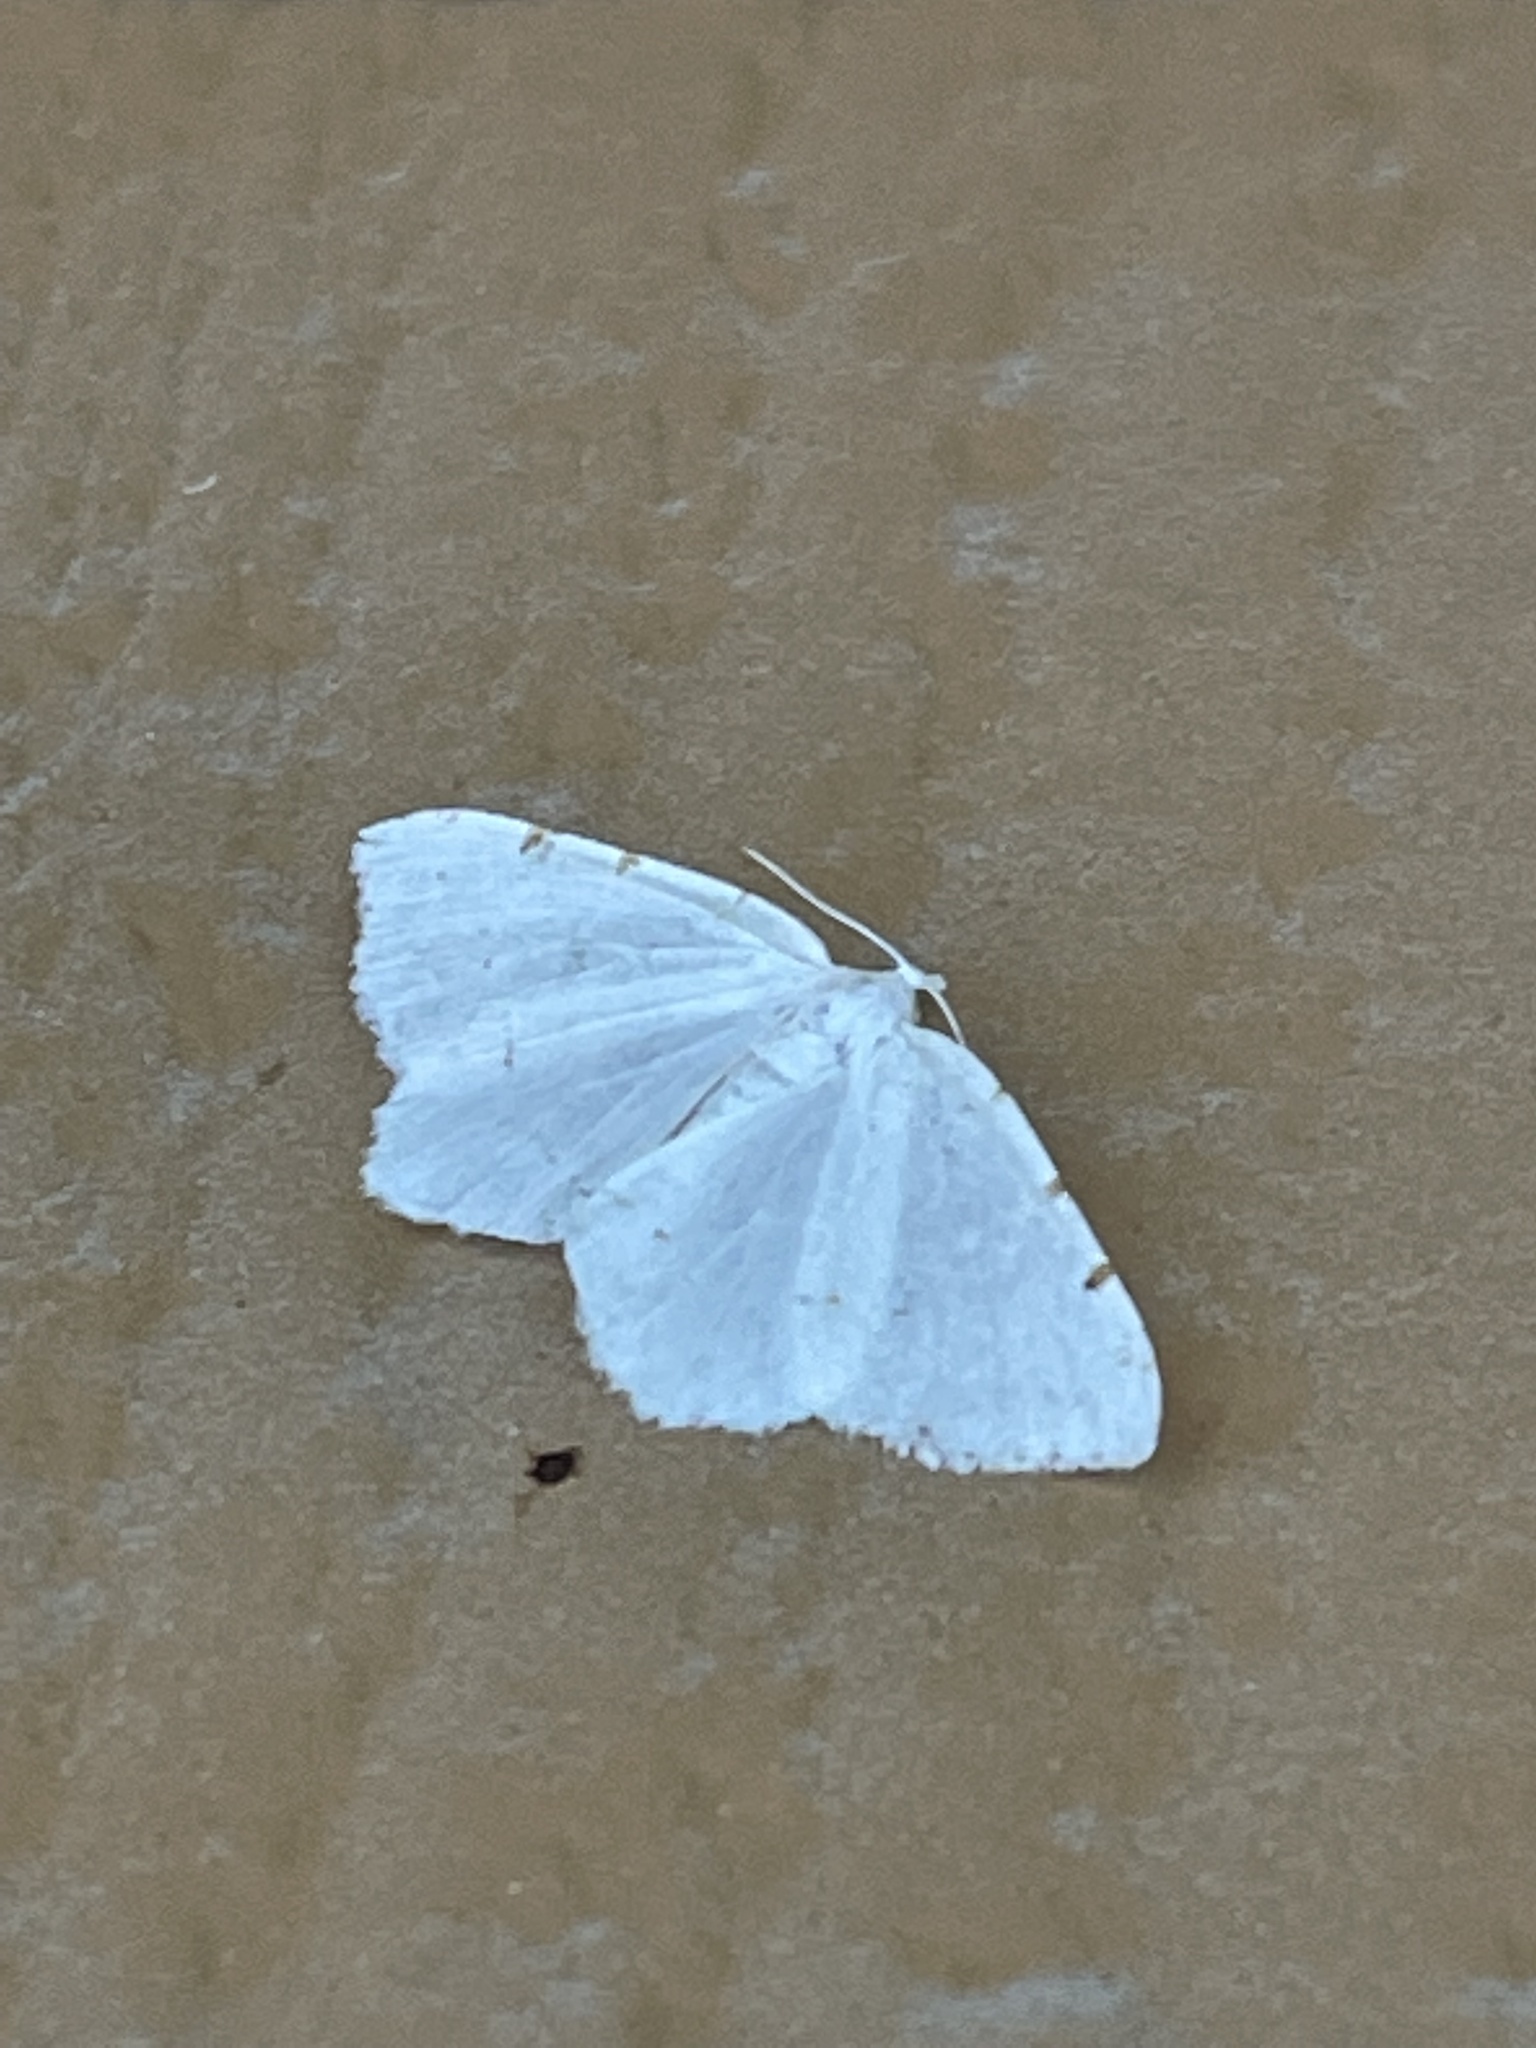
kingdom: Animalia
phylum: Arthropoda
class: Insecta
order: Lepidoptera
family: Geometridae
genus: Macaria
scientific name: Macaria pustularia
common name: Lesser maple spanworm moth
